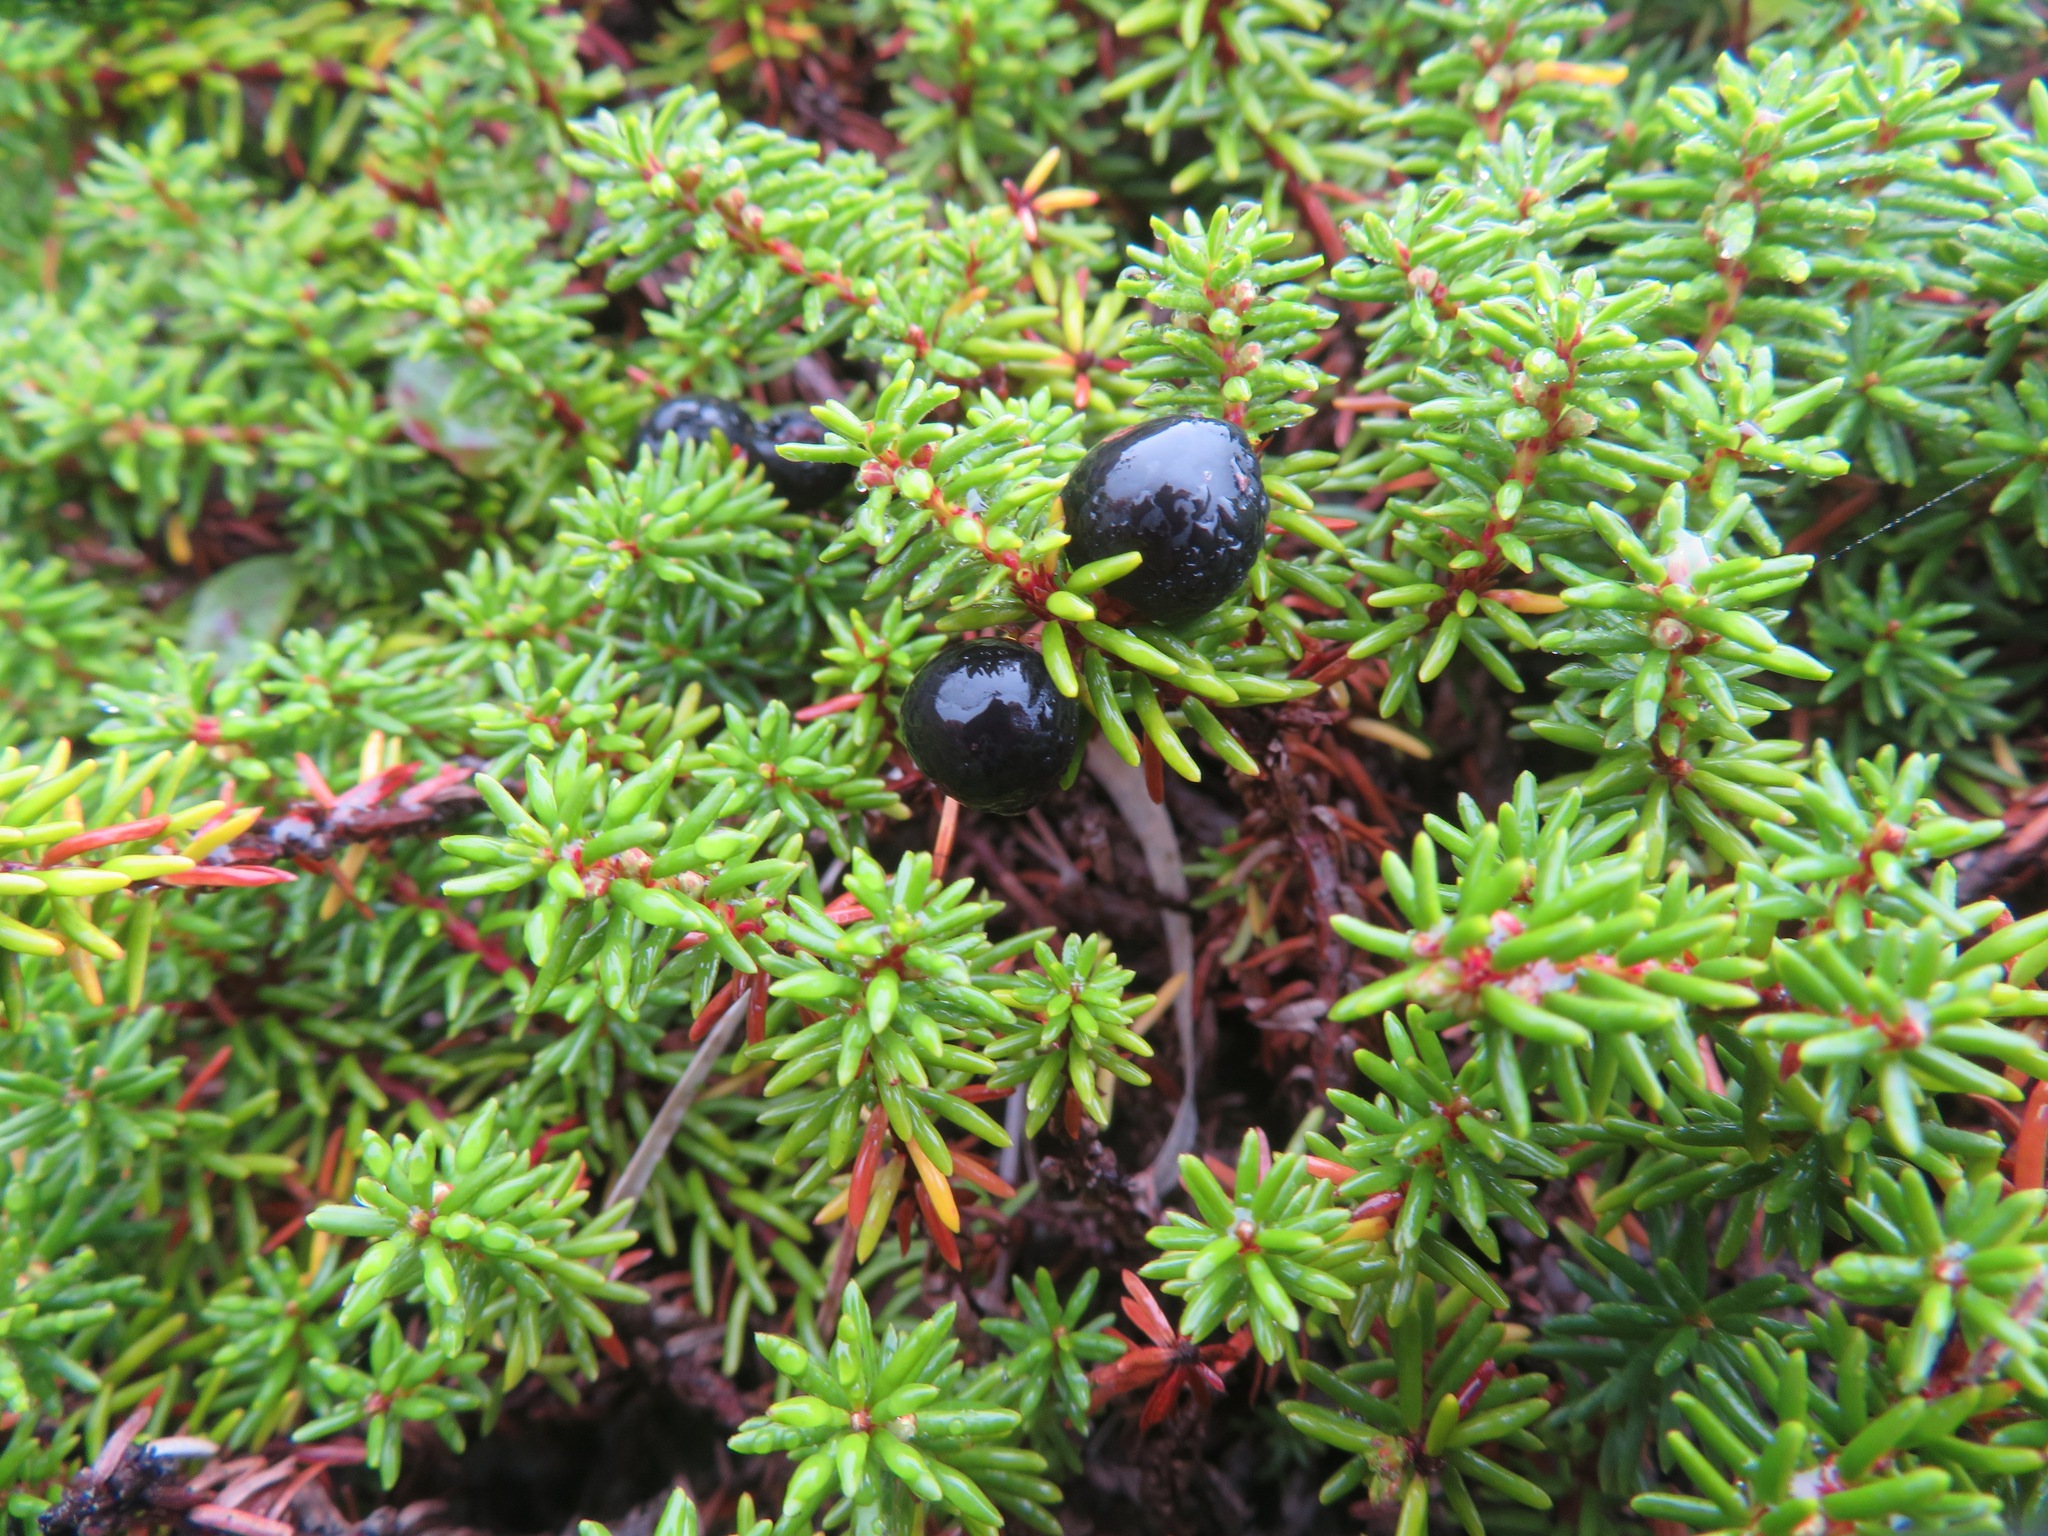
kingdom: Plantae
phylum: Tracheophyta
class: Magnoliopsida
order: Ericales
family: Ericaceae
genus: Empetrum
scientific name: Empetrum nigrum
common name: Black crowberry
